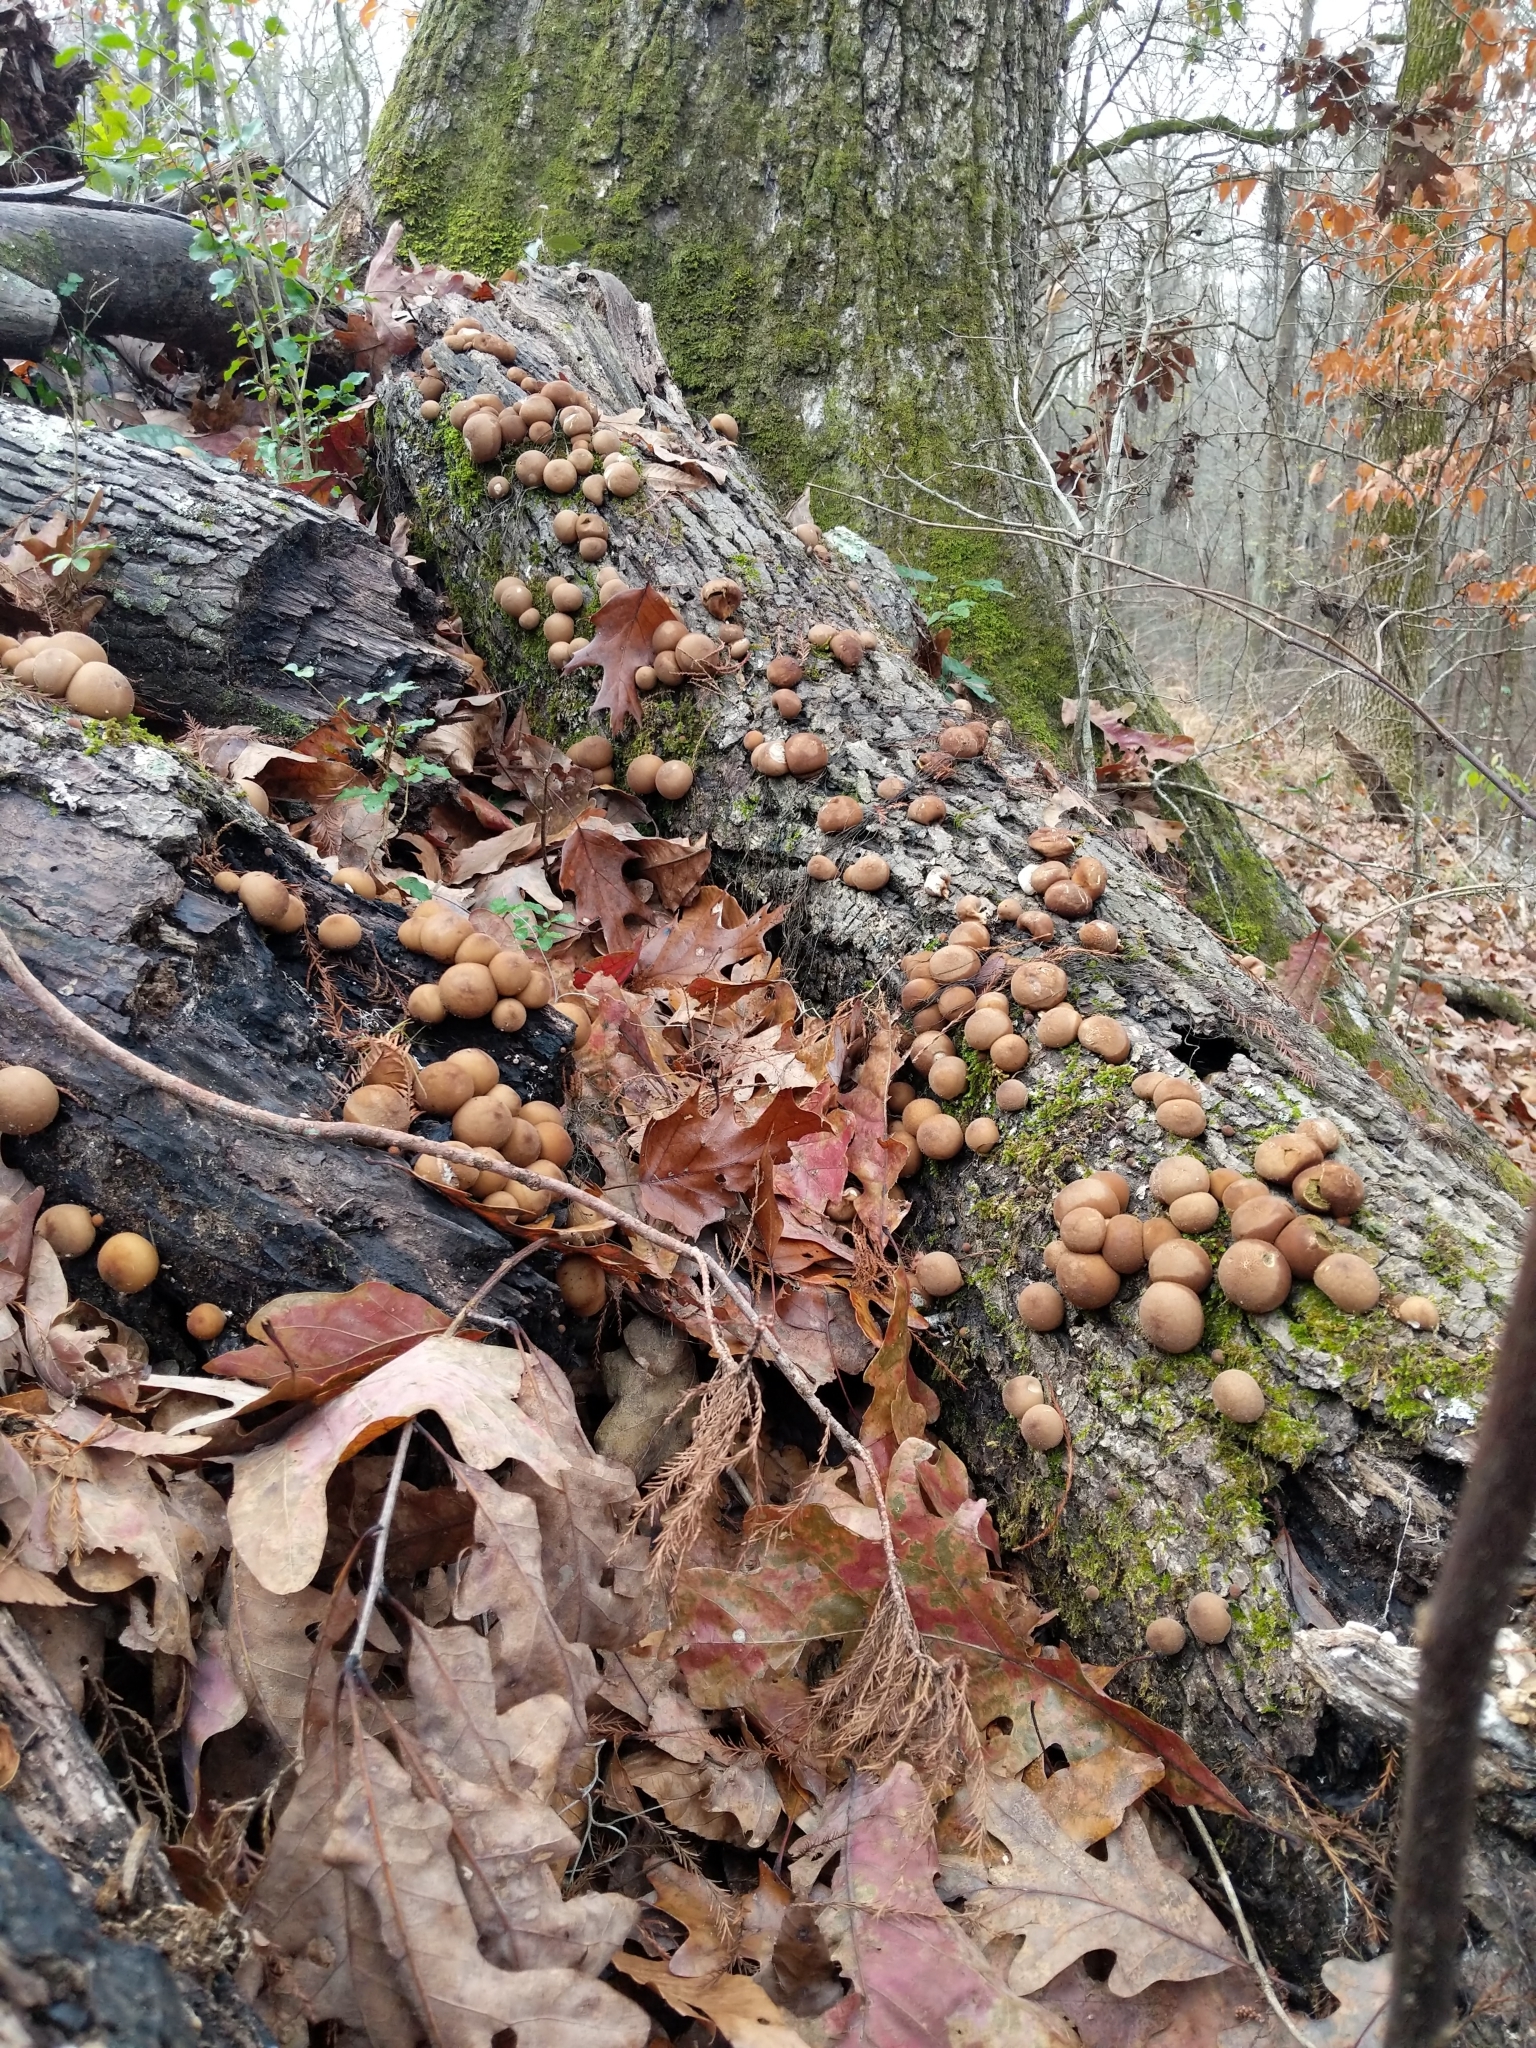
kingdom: Fungi
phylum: Basidiomycota
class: Agaricomycetes
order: Agaricales
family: Lycoperdaceae
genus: Apioperdon
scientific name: Apioperdon pyriforme
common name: Pear-shaped puffball
